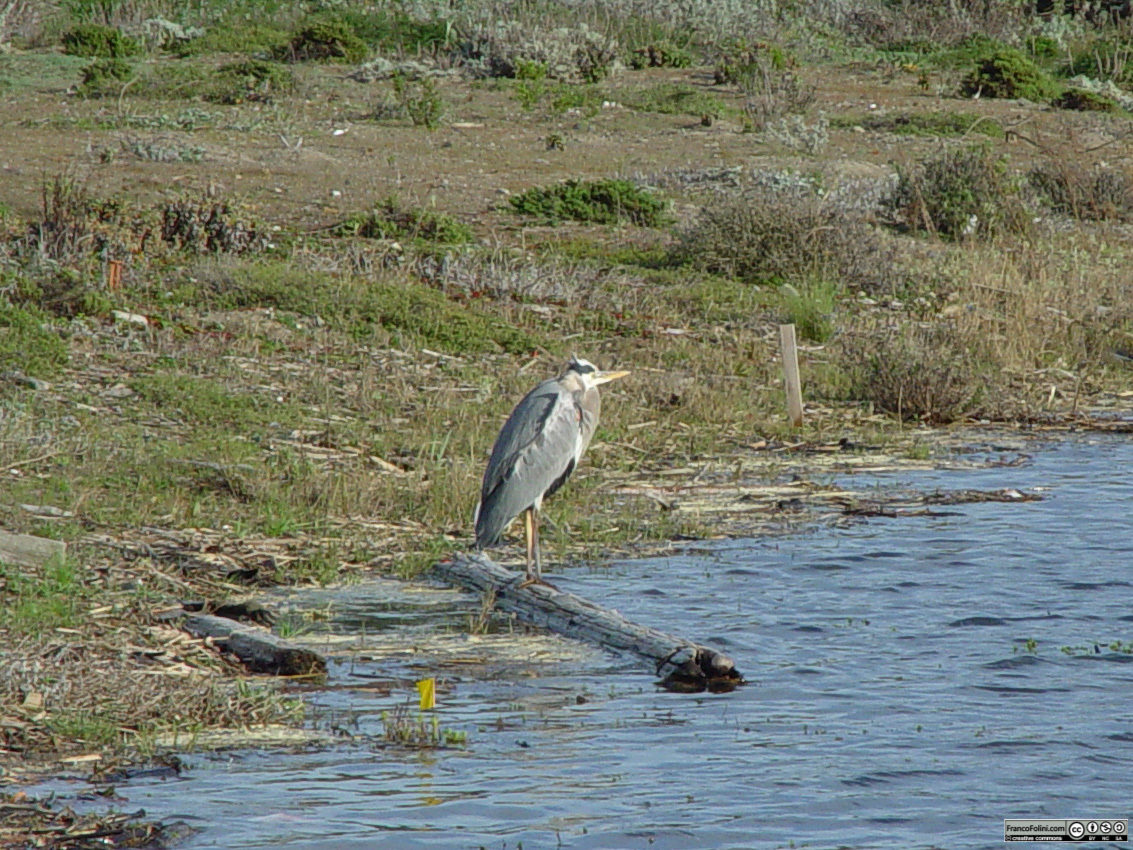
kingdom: Animalia
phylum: Chordata
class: Aves
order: Pelecaniformes
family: Ardeidae
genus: Ardea
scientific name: Ardea herodias
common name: Great blue heron
